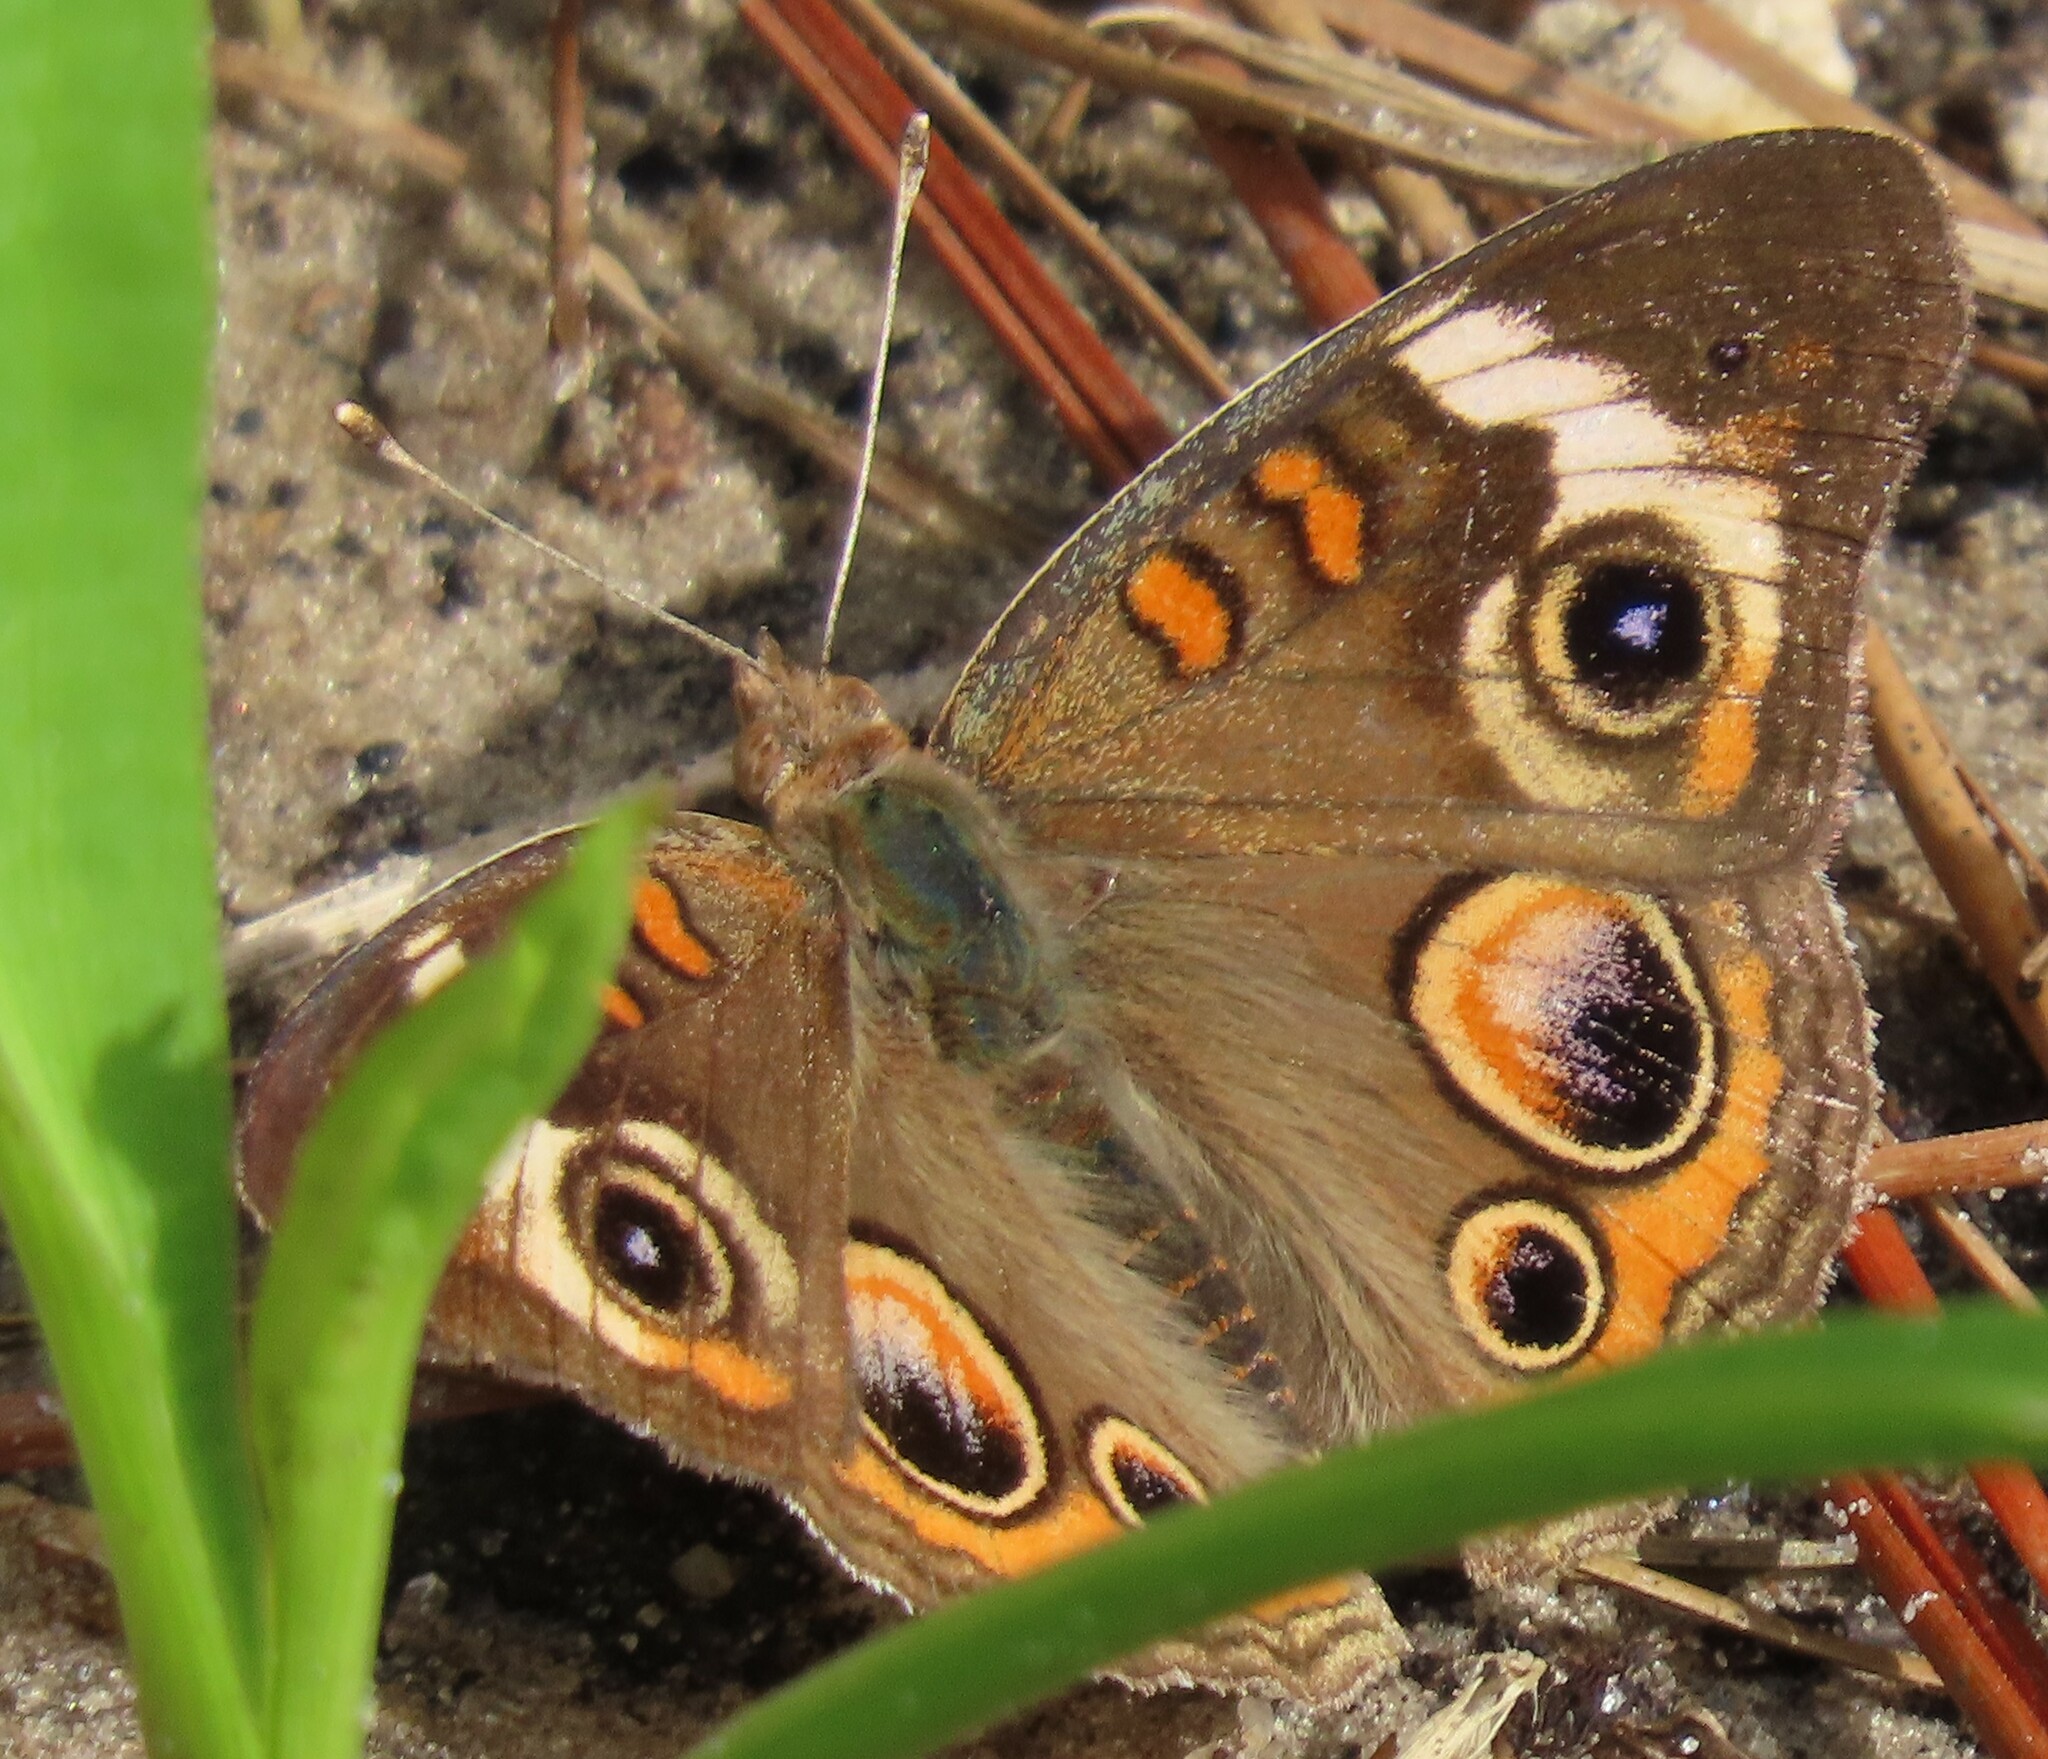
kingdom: Animalia
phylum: Arthropoda
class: Insecta
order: Lepidoptera
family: Nymphalidae
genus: Junonia
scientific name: Junonia coenia
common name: Common buckeye
